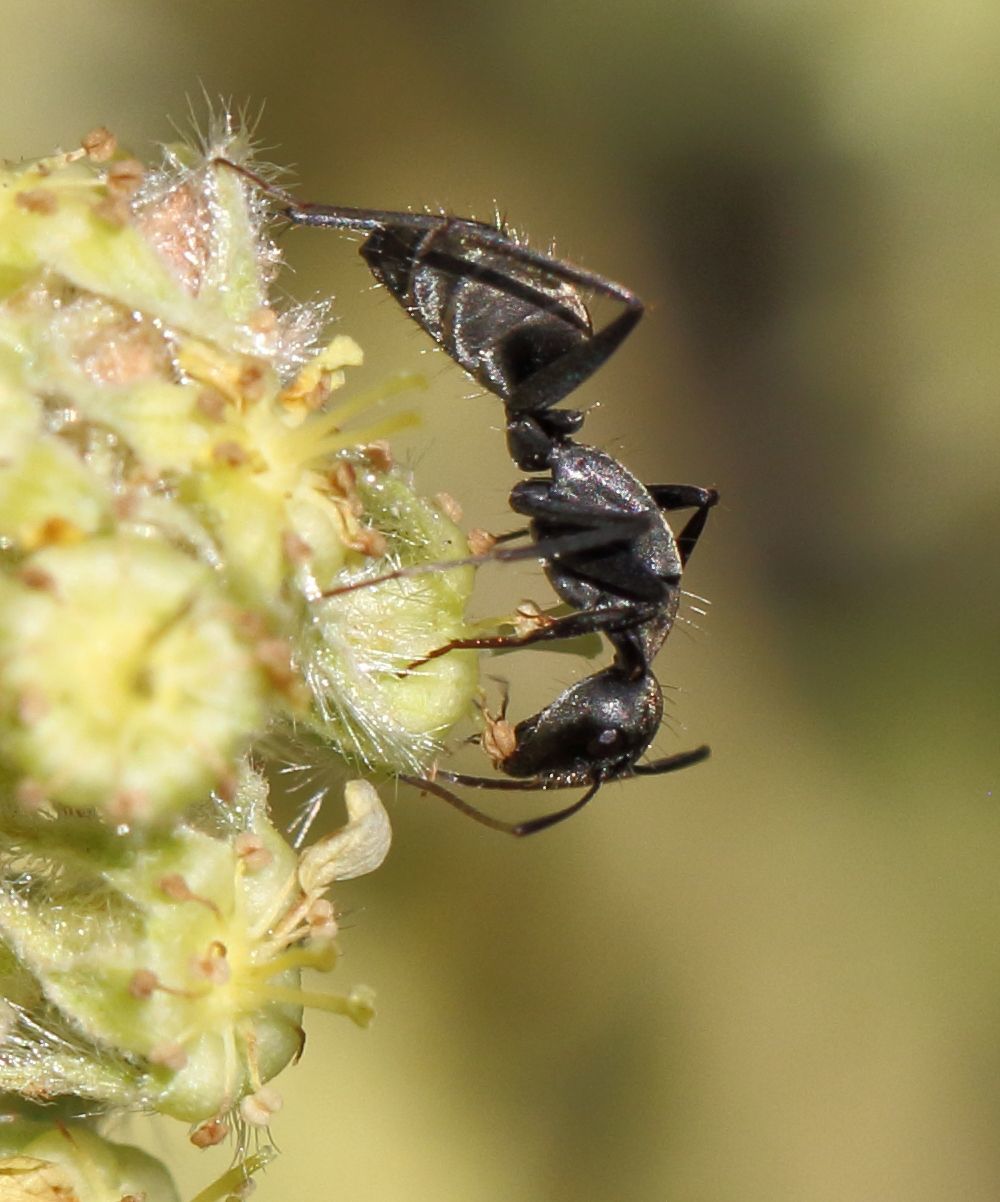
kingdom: Animalia
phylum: Arthropoda
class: Insecta
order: Hymenoptera
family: Formicidae
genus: Camponotus
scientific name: Camponotus cinctellus
